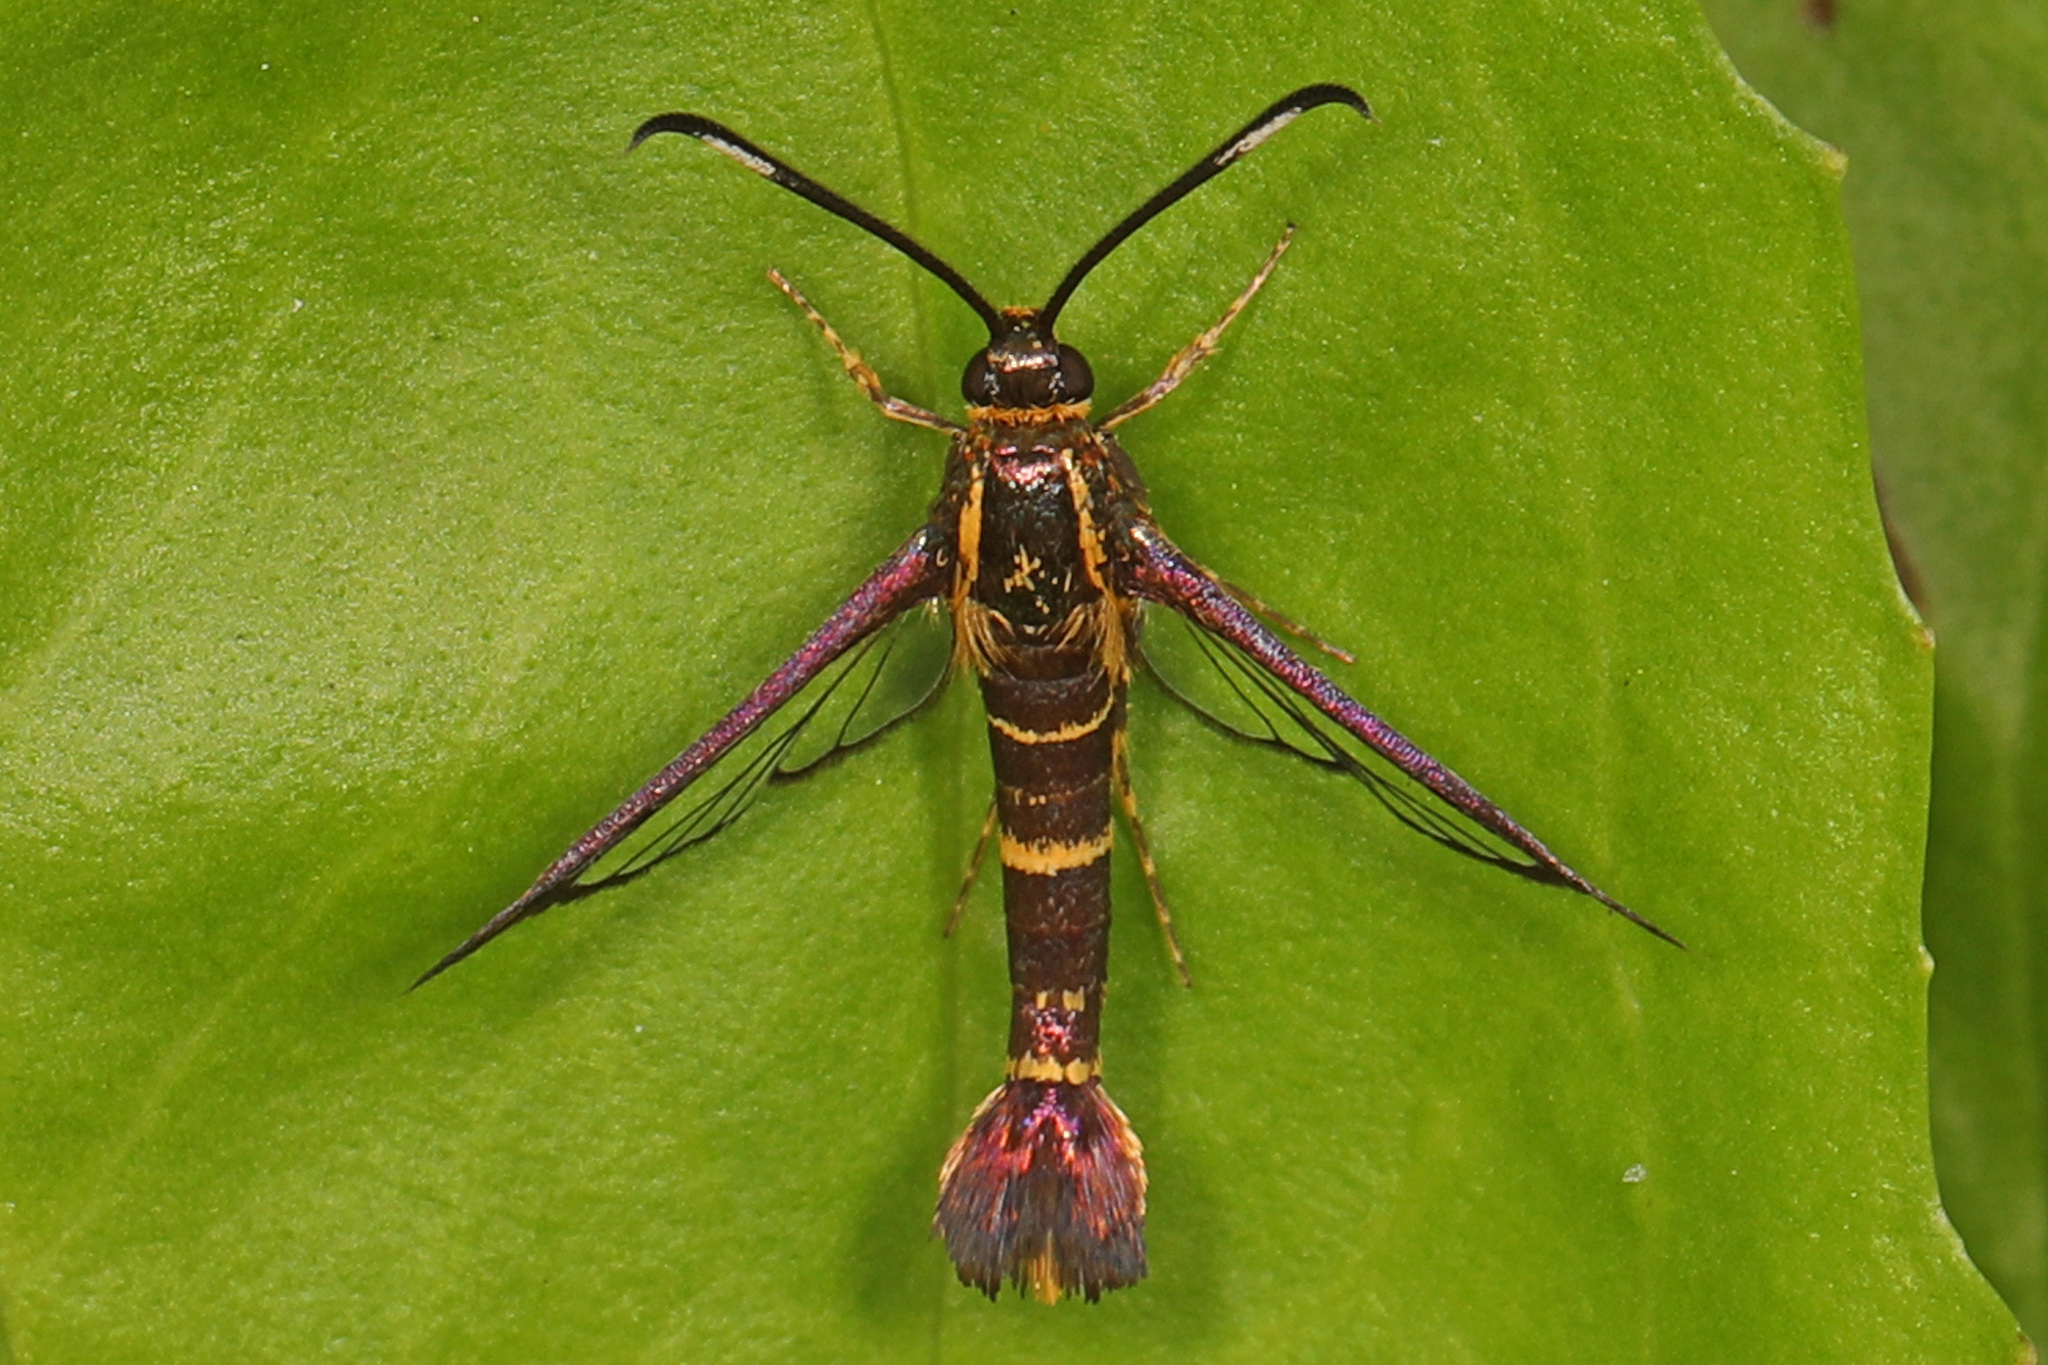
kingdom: Animalia
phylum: Arthropoda
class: Insecta
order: Lepidoptera
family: Sesiidae
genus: Carmenta
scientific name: Carmenta bassiformis
